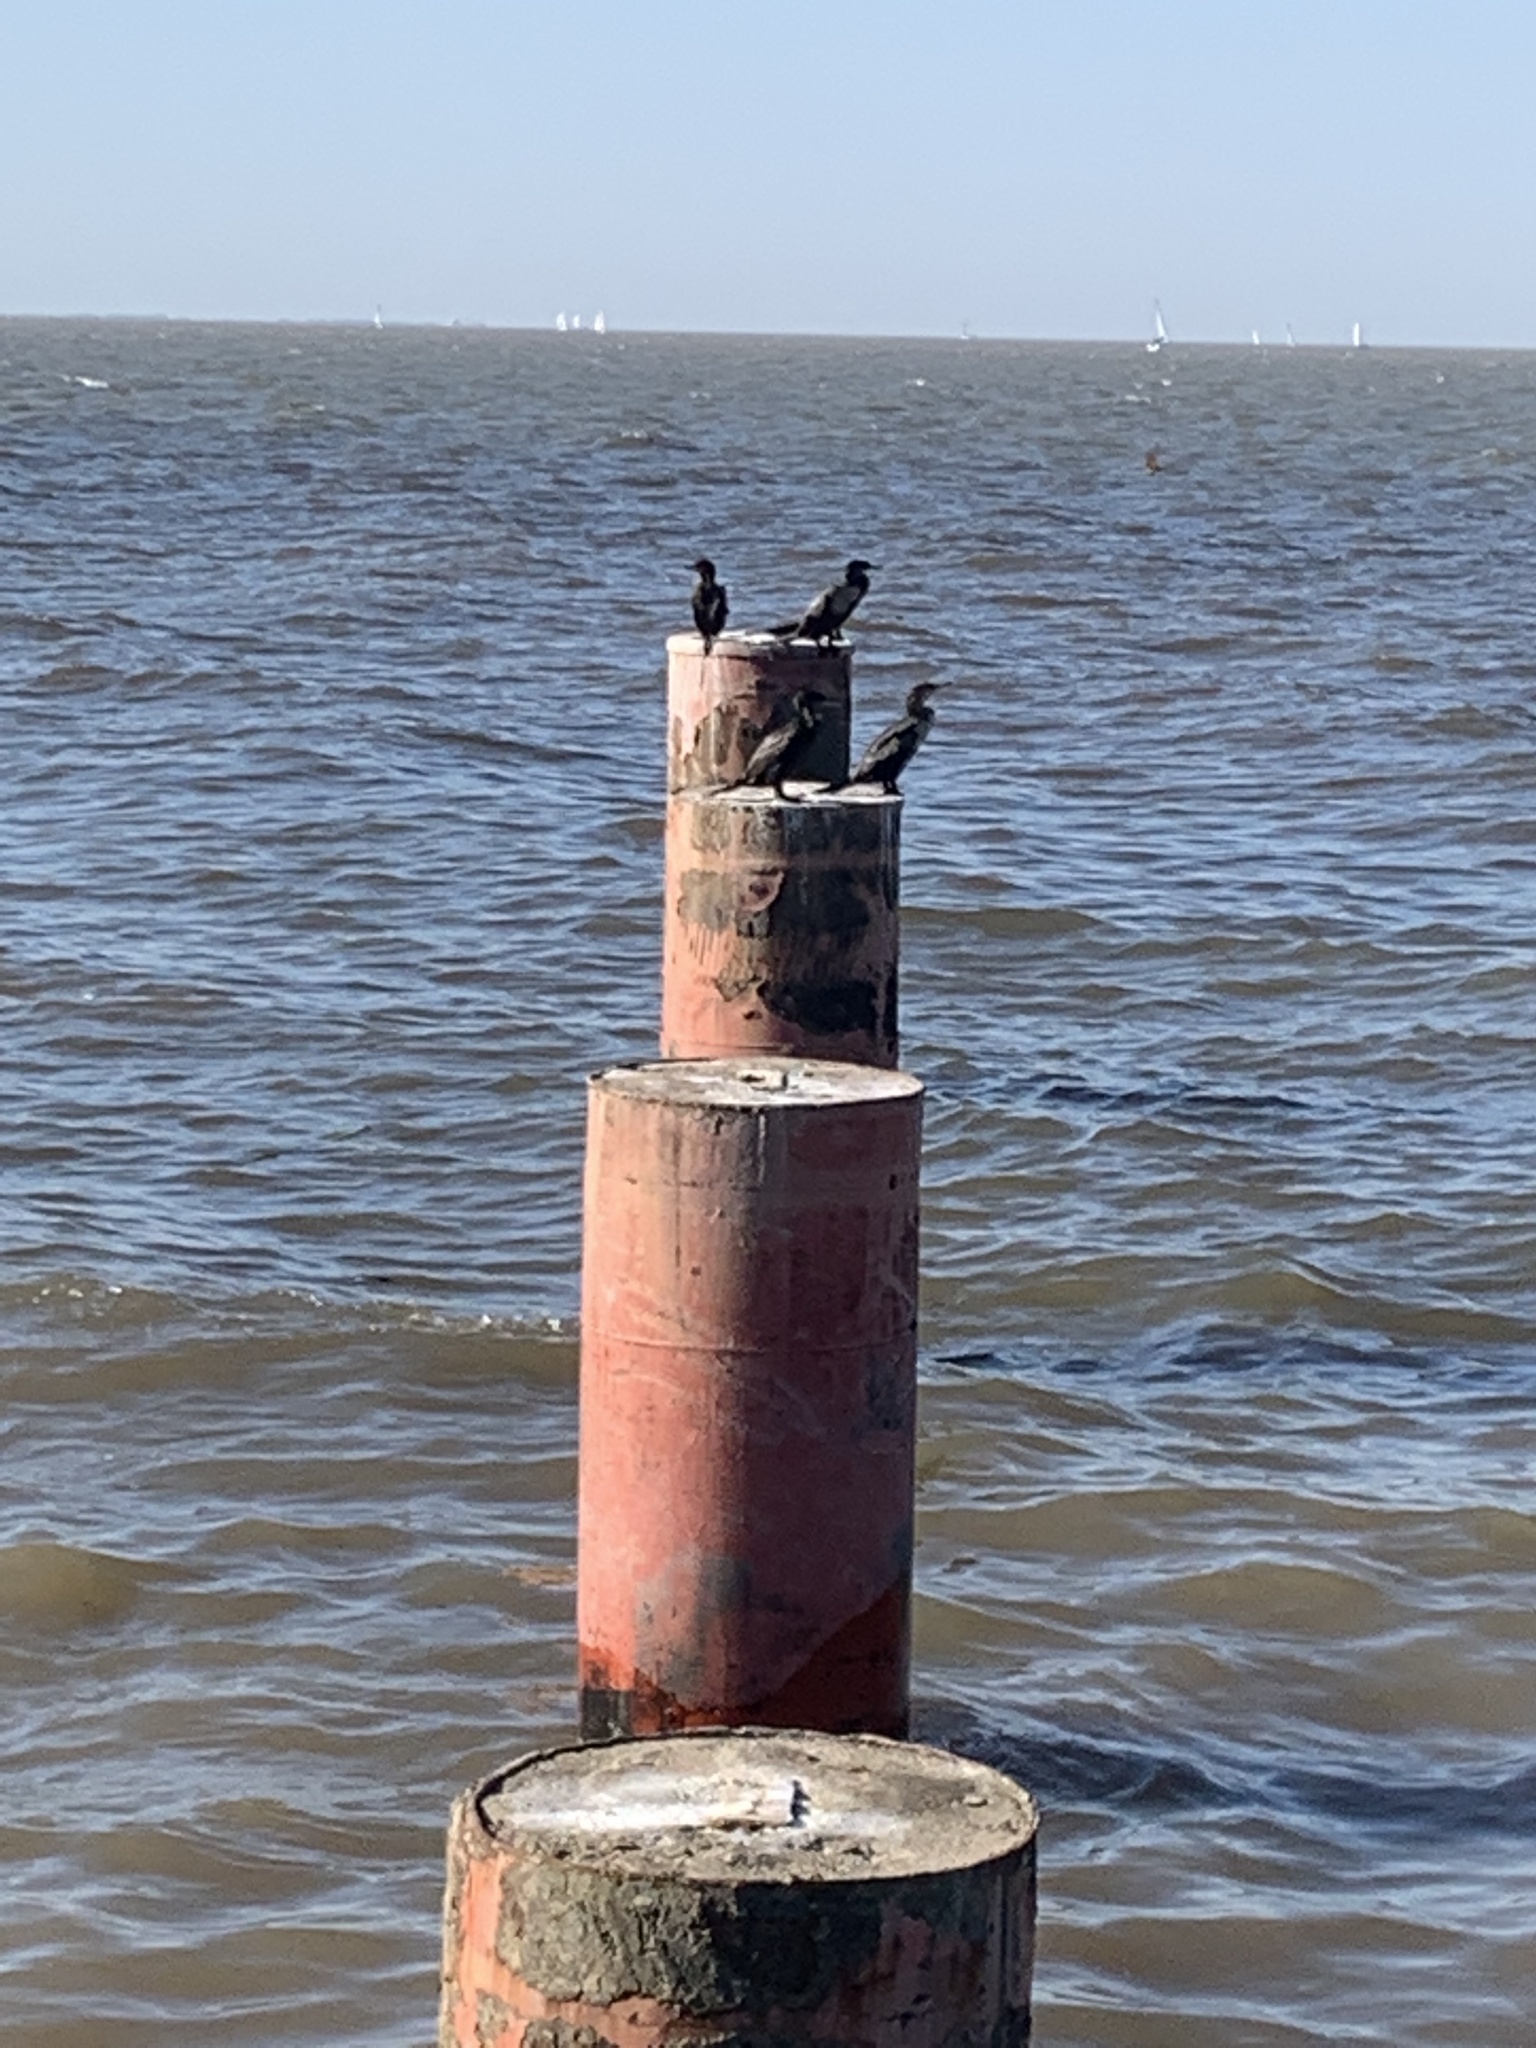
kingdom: Animalia
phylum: Chordata
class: Aves
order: Suliformes
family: Phalacrocoracidae
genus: Phalacrocorax
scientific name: Phalacrocorax brasilianus
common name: Neotropic cormorant
